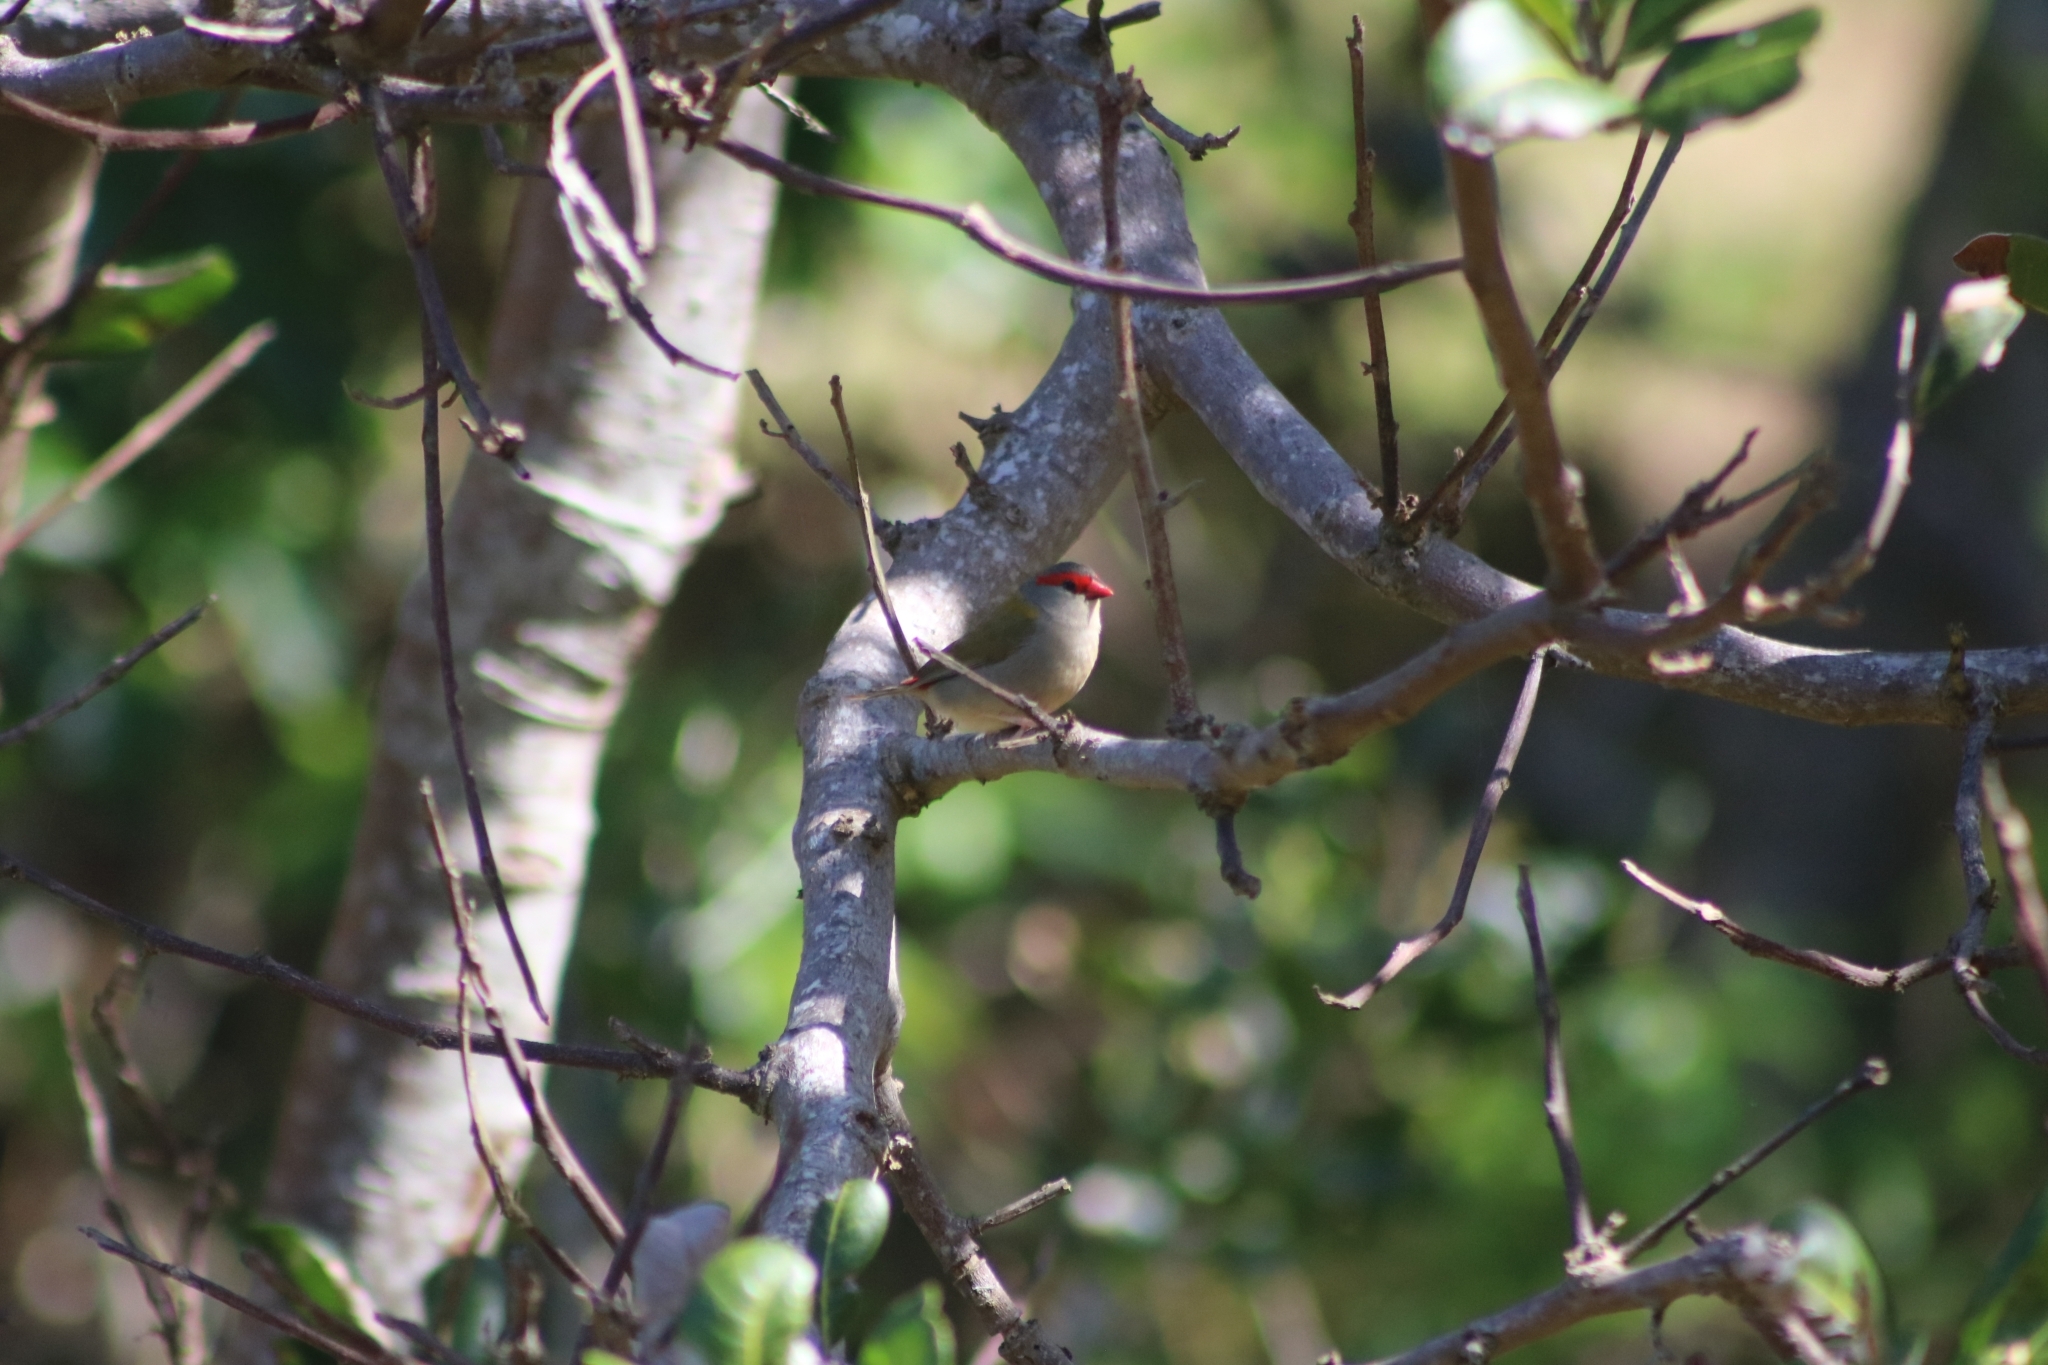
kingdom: Animalia
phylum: Chordata
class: Aves
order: Passeriformes
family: Estrildidae
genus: Neochmia
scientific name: Neochmia temporalis
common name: Red-browed finch
